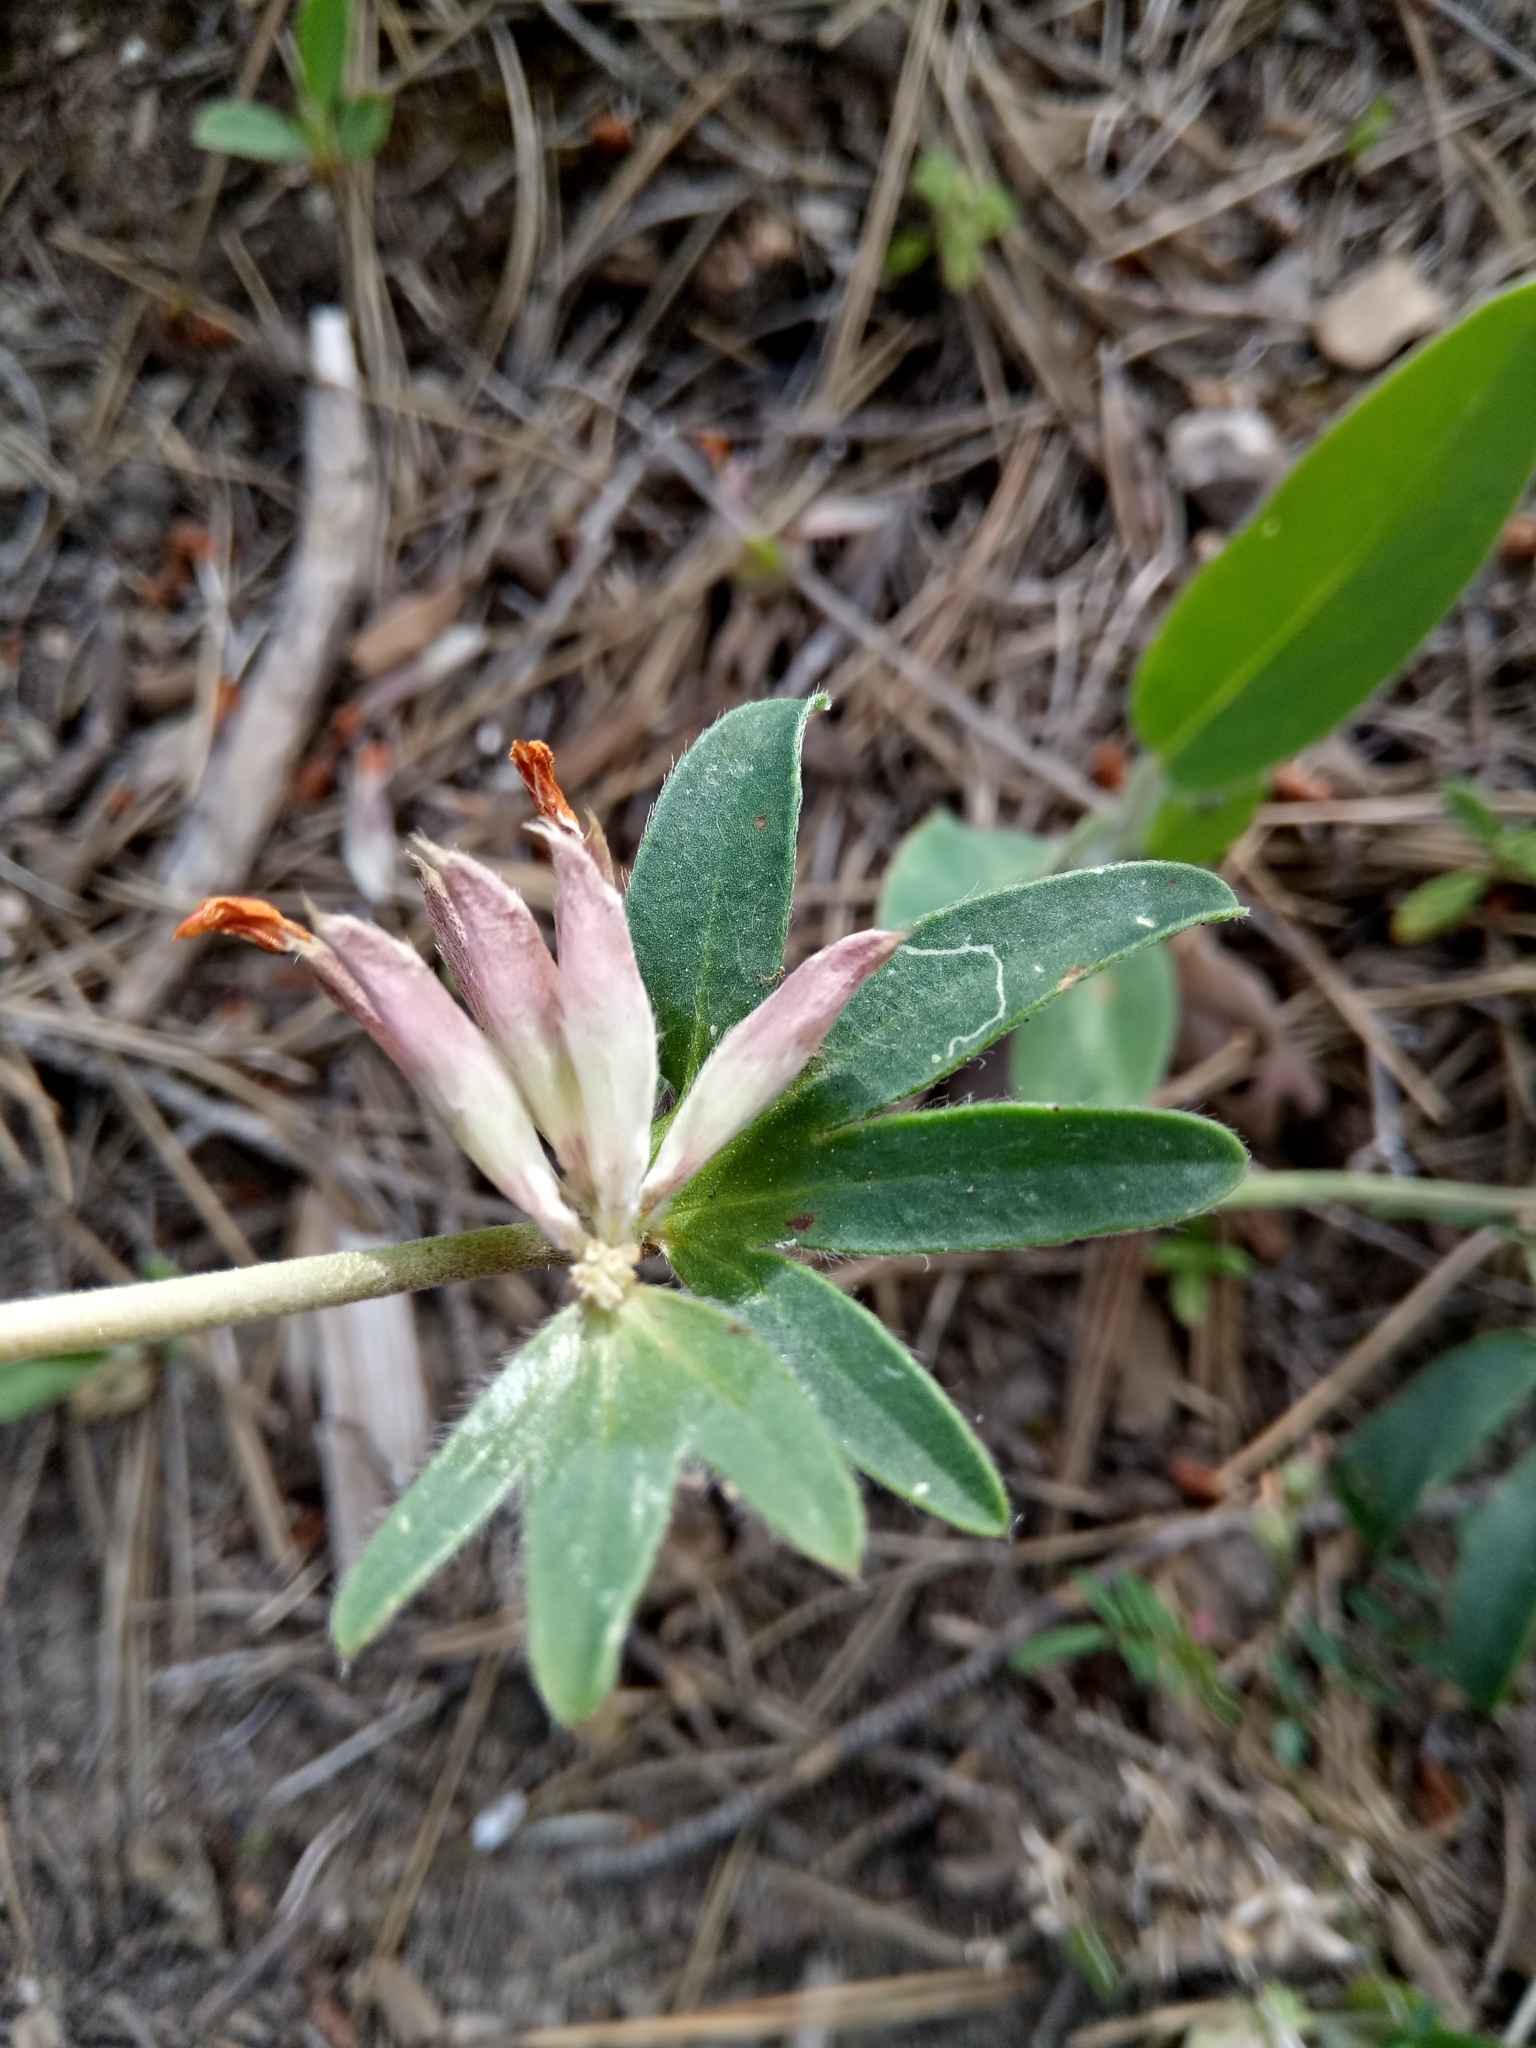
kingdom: Plantae
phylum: Tracheophyta
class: Magnoliopsida
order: Fabales
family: Fabaceae
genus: Anthyllis
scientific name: Anthyllis vulneraria
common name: Kidney vetch
